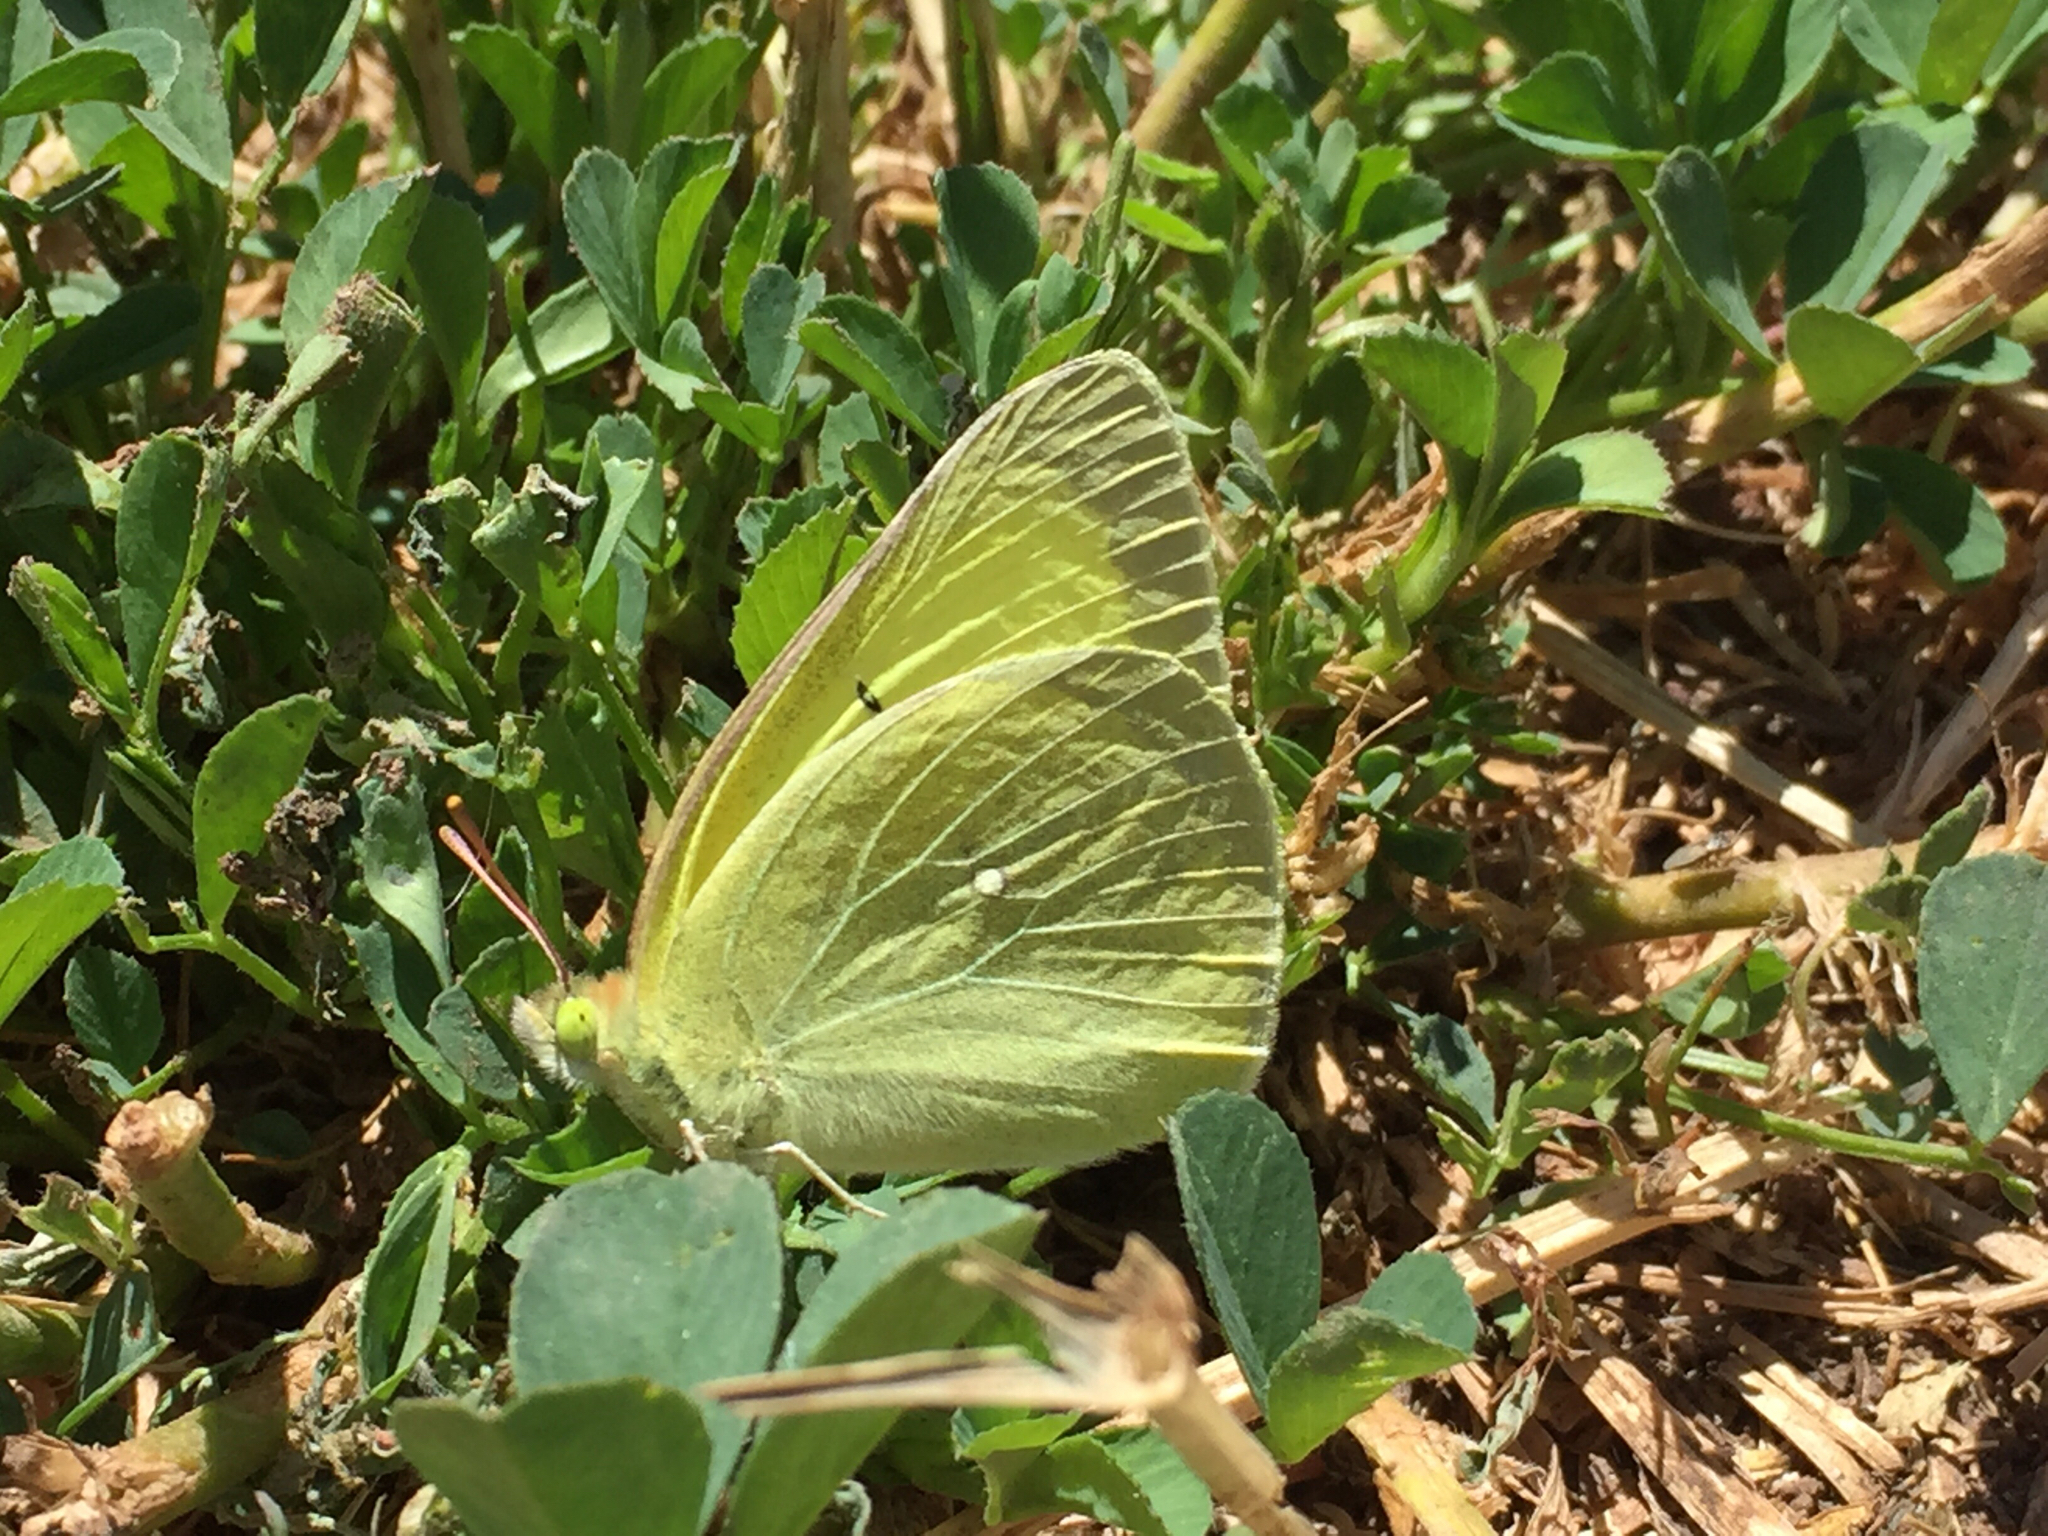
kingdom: Animalia
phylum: Arthropoda
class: Insecta
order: Lepidoptera
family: Pieridae
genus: Colias
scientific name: Colias alexandra
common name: Alexandra sulphur
